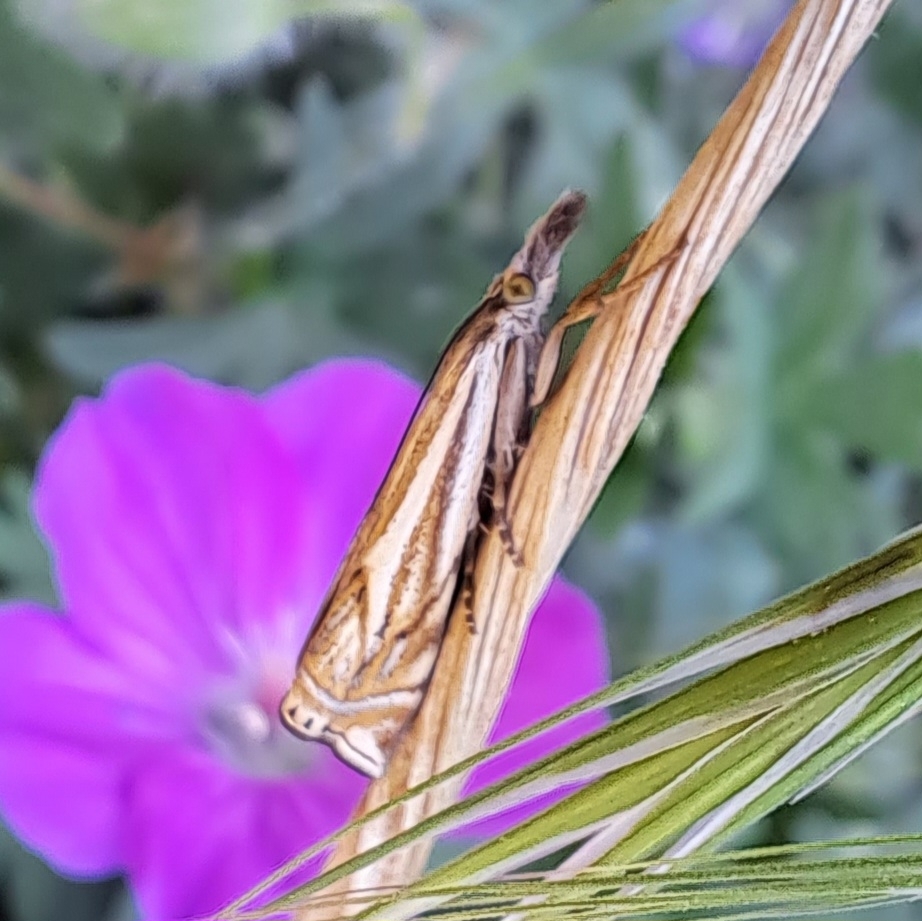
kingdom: Animalia
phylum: Arthropoda
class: Insecta
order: Lepidoptera
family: Crambidae
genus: Crambus
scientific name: Crambus nemorella
